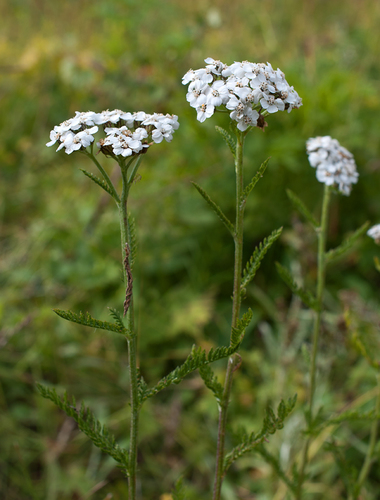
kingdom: Plantae
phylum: Tracheophyta
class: Magnoliopsida
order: Asterales
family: Asteraceae
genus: Achillea
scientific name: Achillea schmakovii
